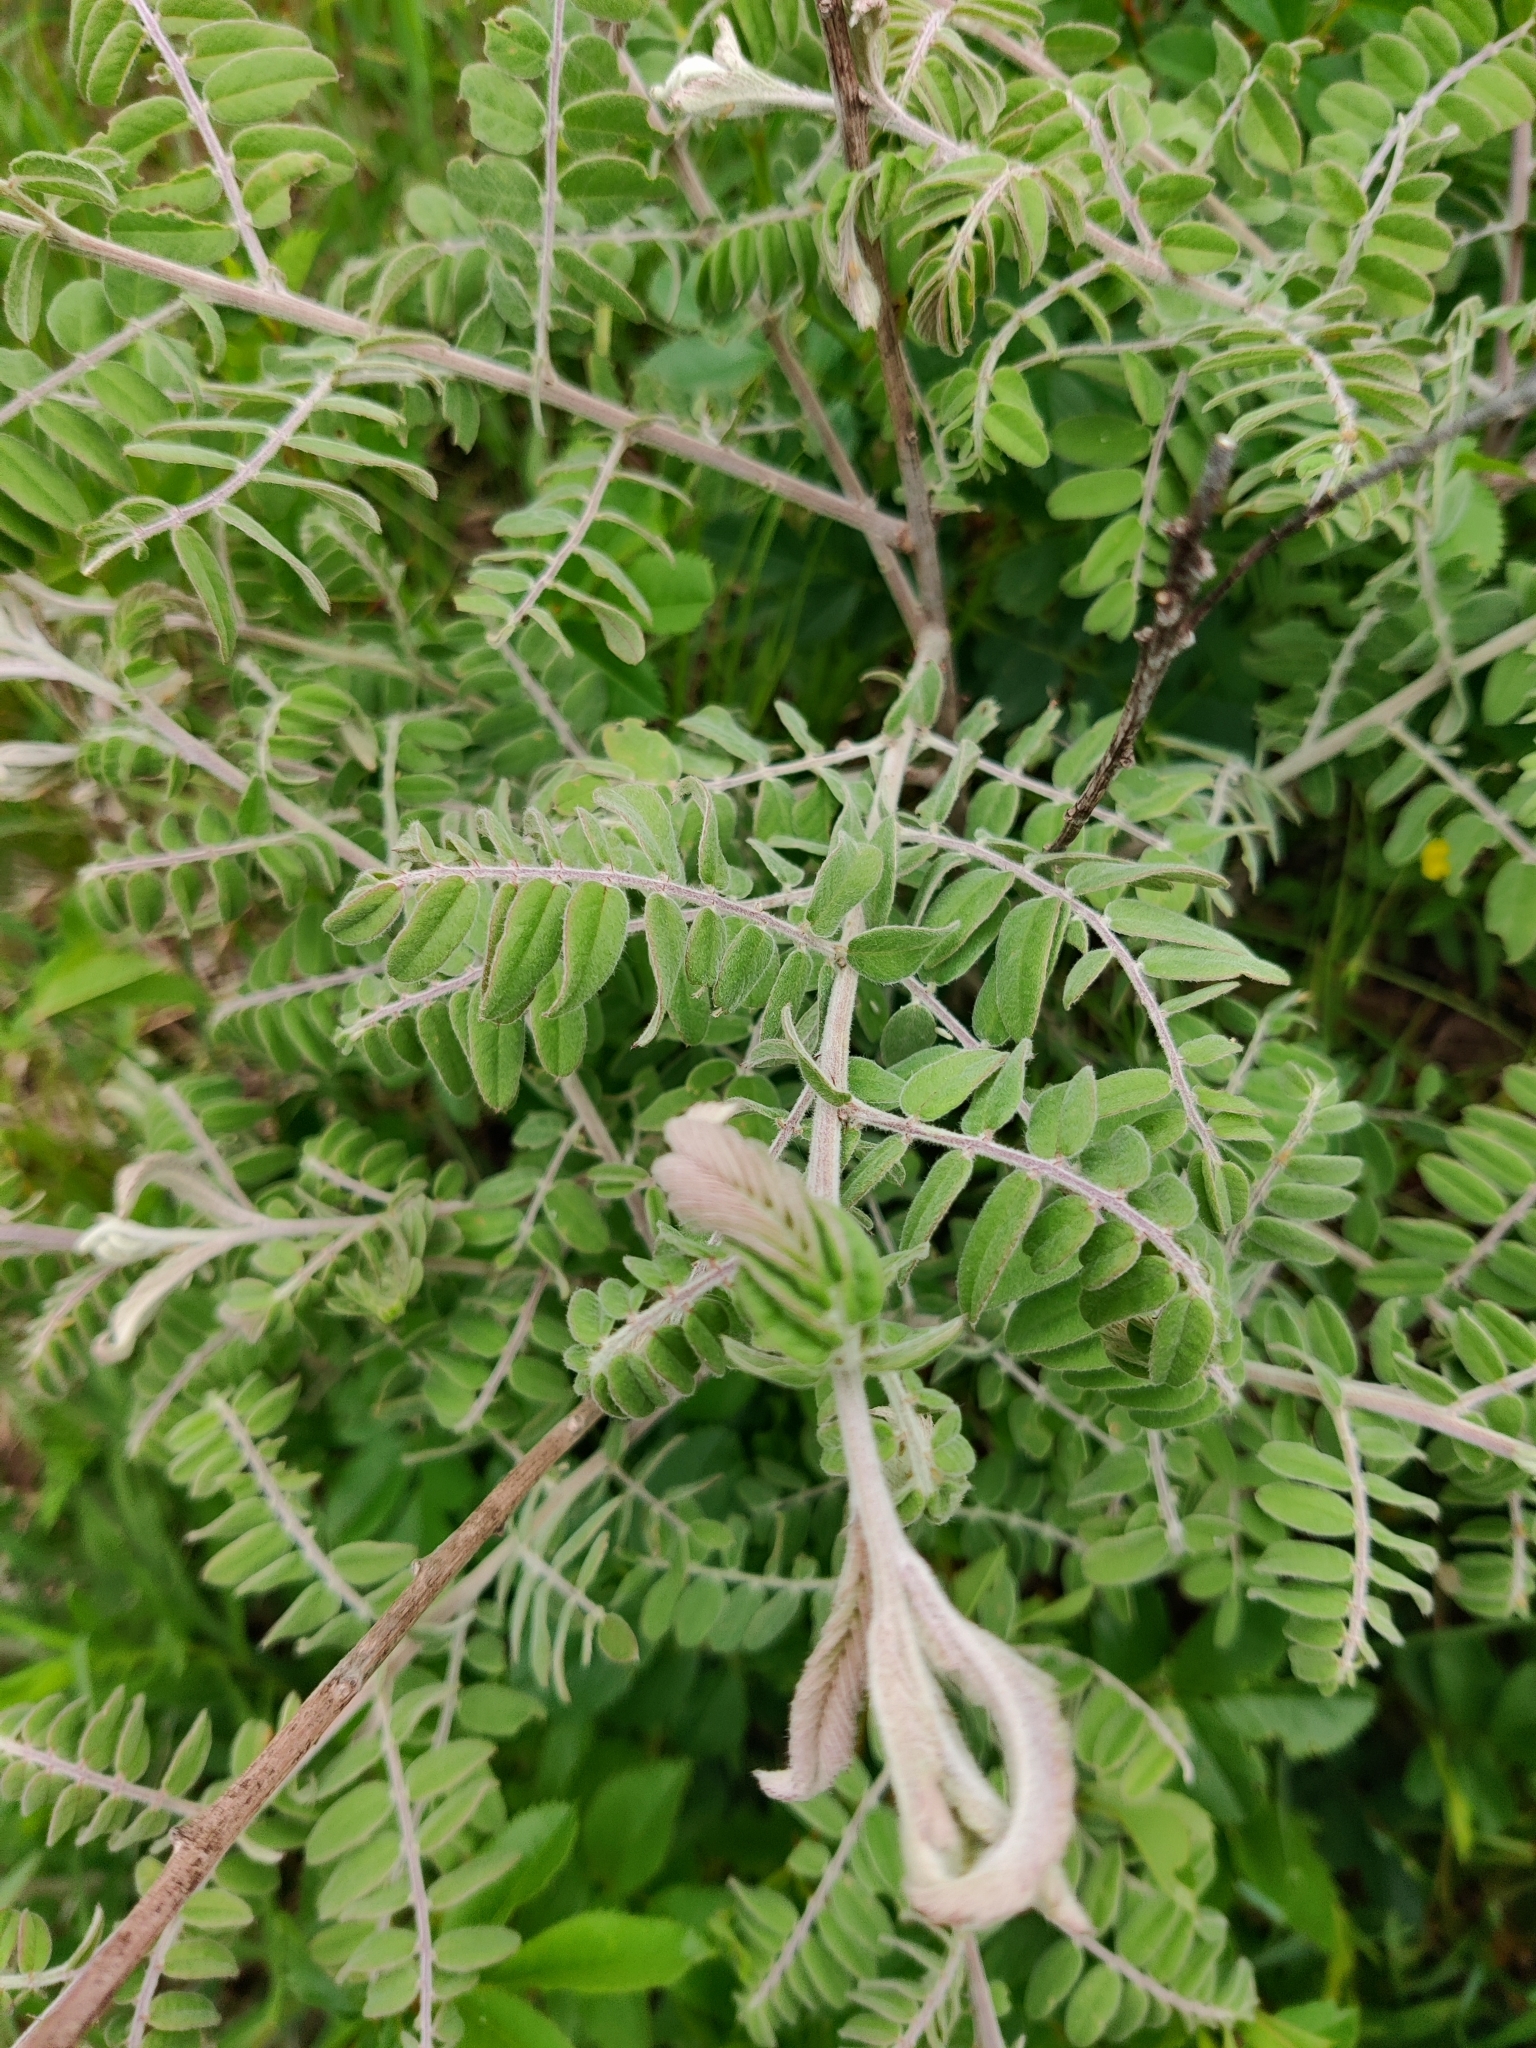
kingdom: Plantae
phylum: Tracheophyta
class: Magnoliopsida
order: Fabales
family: Fabaceae
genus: Amorpha
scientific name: Amorpha canescens
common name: Leadplant
